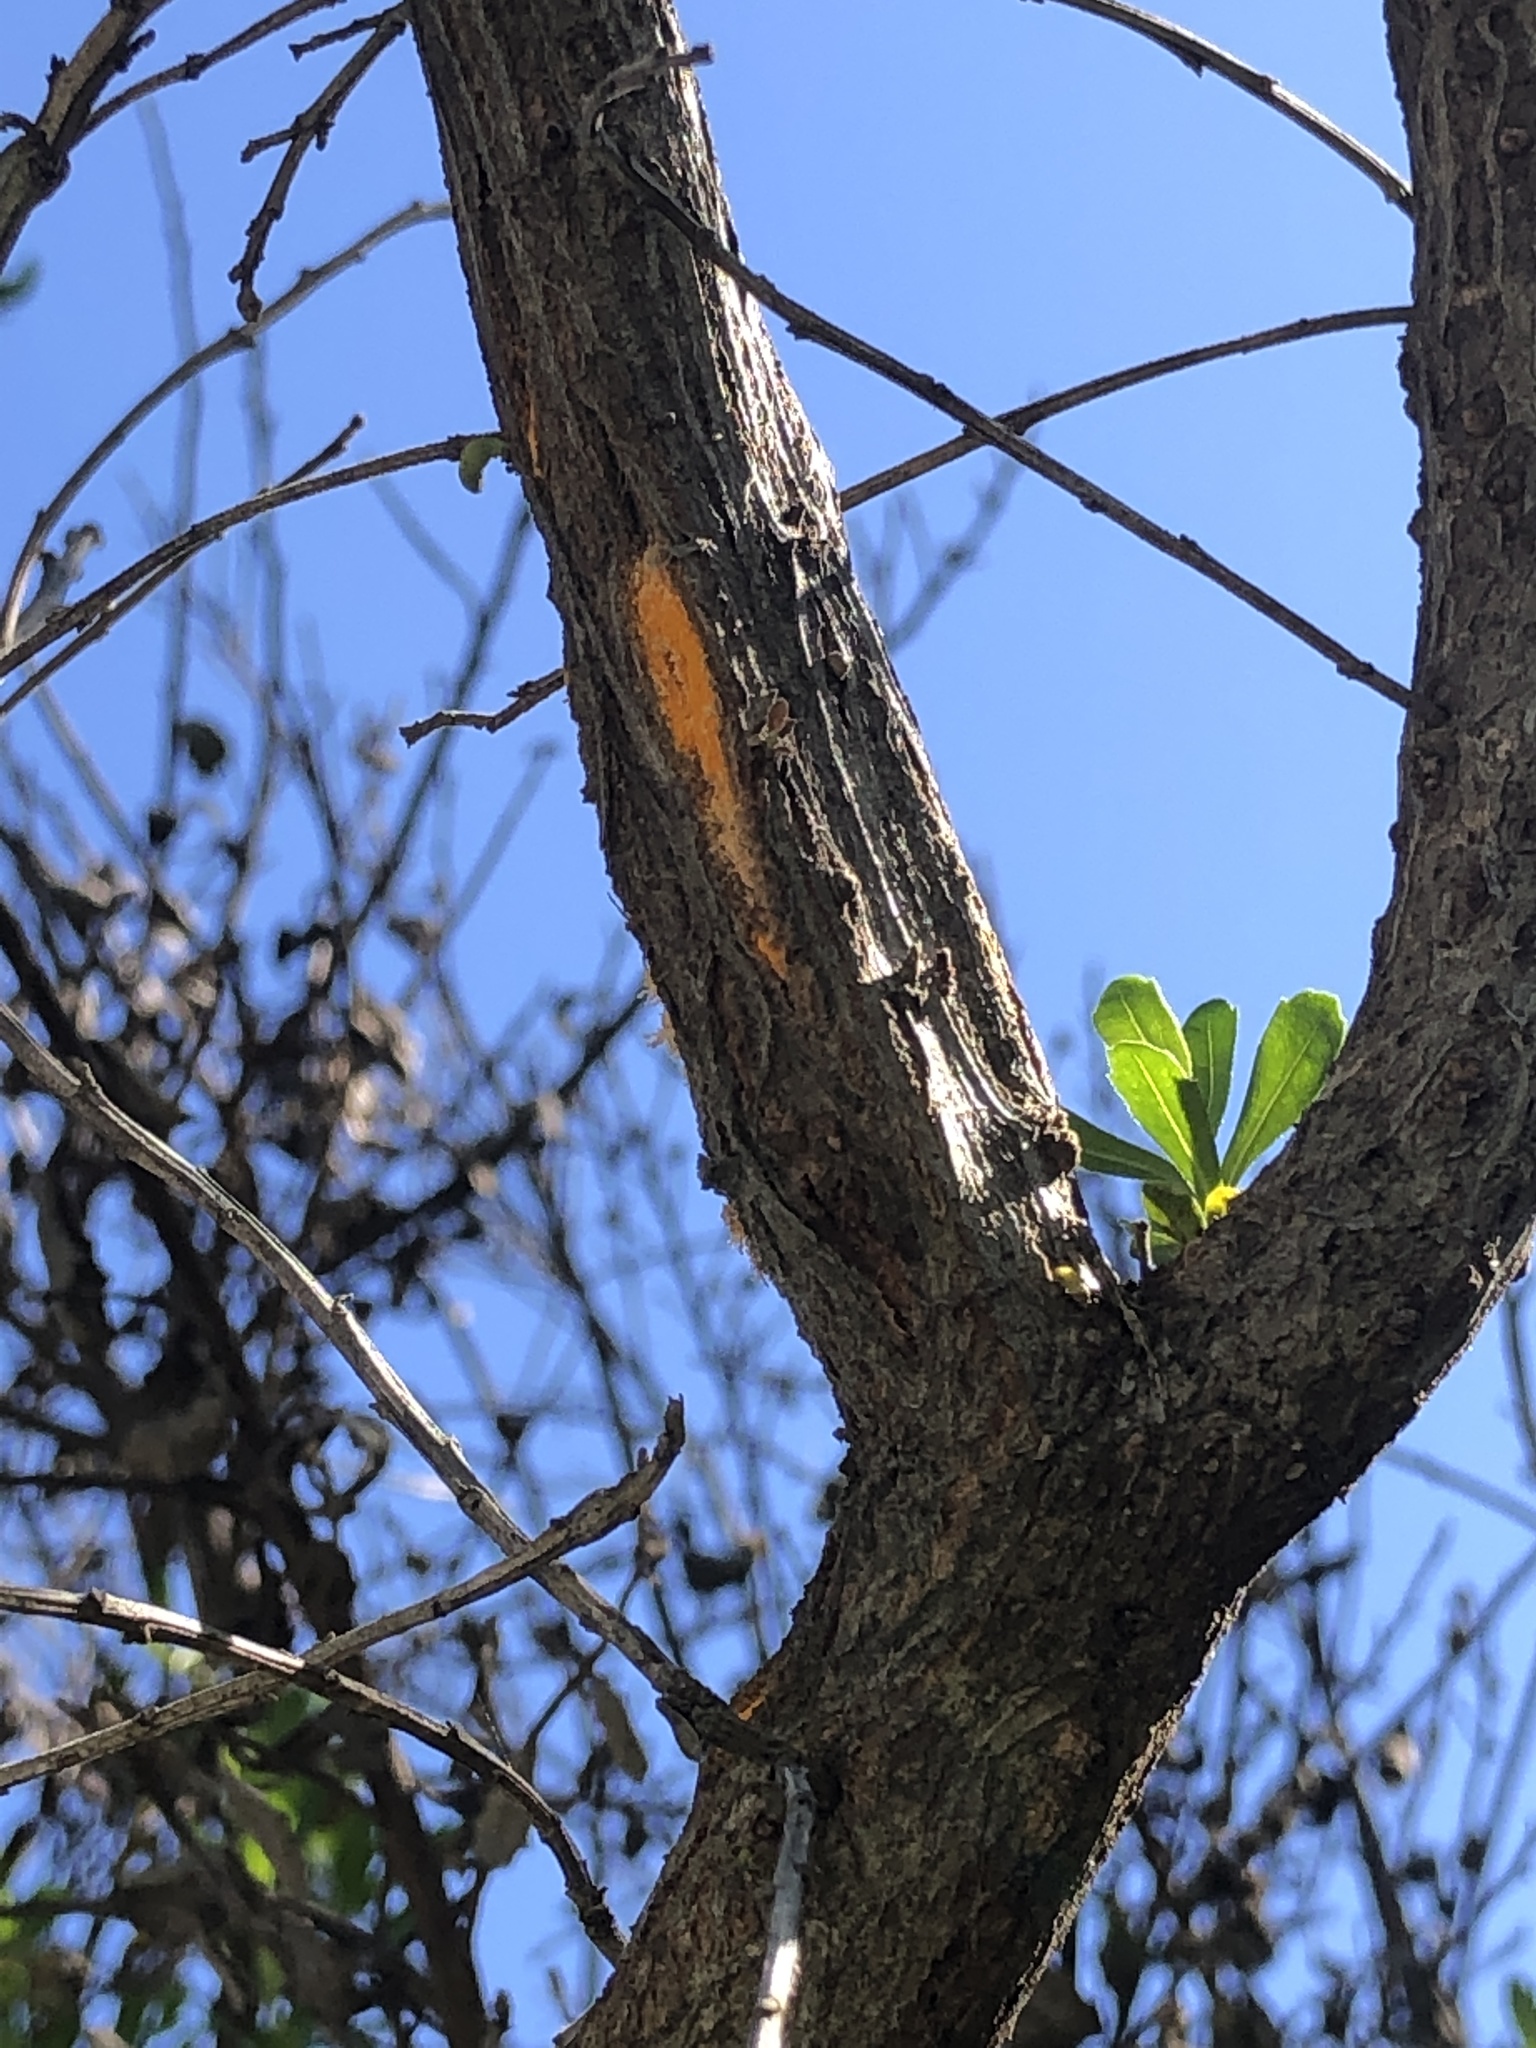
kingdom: Fungi
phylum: Basidiomycota
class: Pucciniomycetes
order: Pucciniales
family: Pucciniaceae
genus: Eriosporangium
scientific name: Eriosporangium evadens
